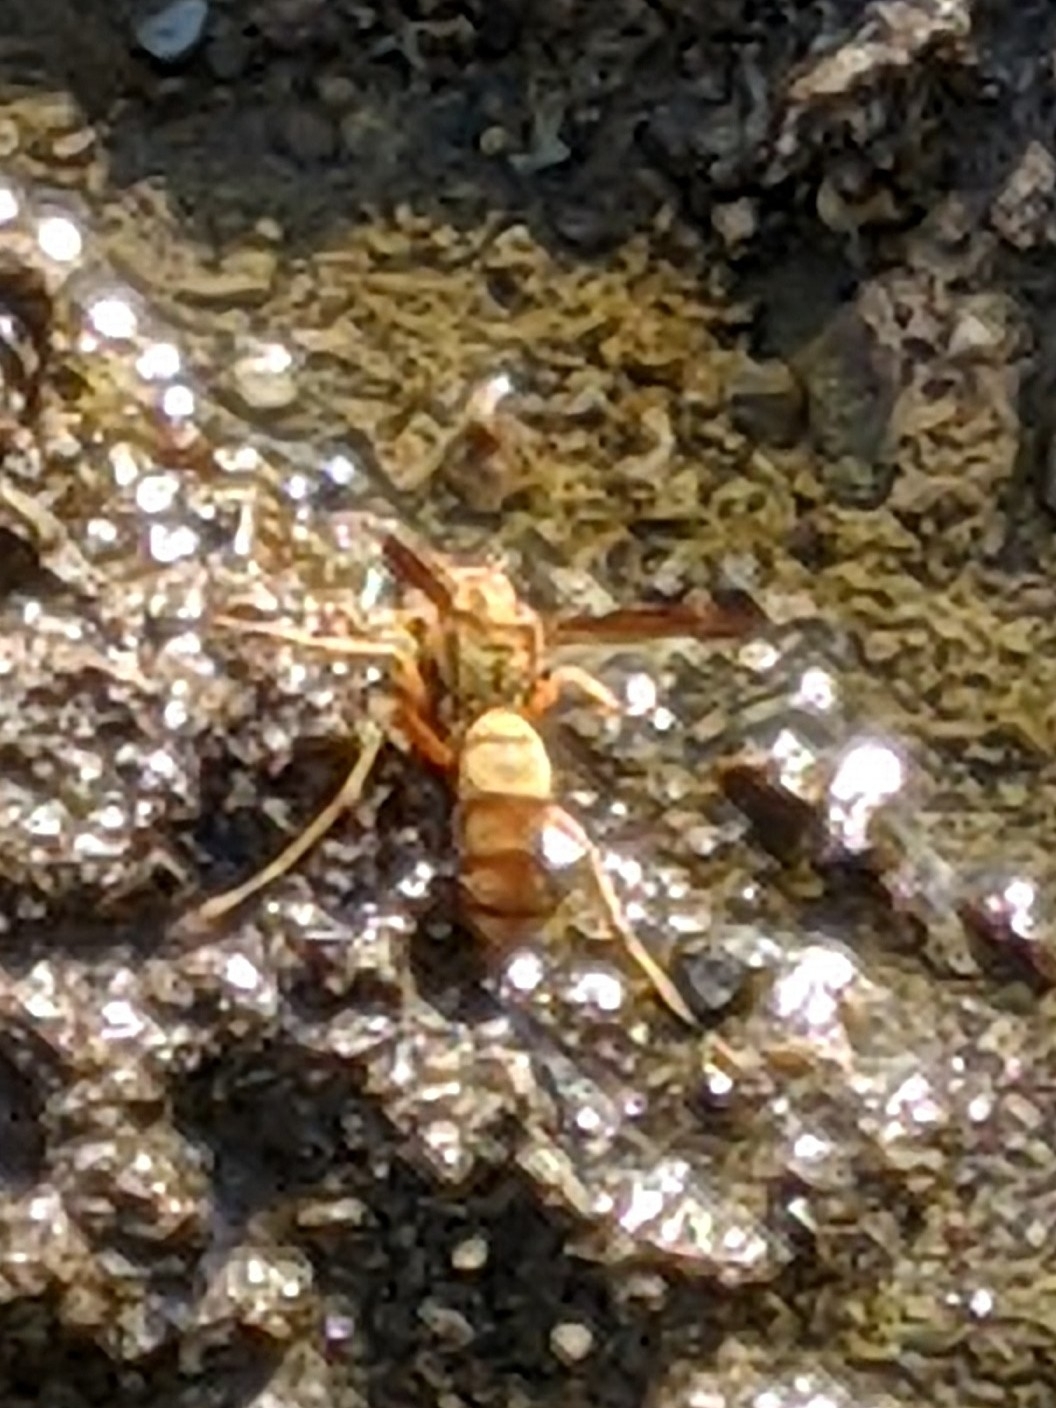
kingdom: Animalia
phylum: Arthropoda
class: Insecta
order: Hymenoptera
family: Eumenidae
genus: Polistes
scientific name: Polistes aurifer
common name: Paper wasp
